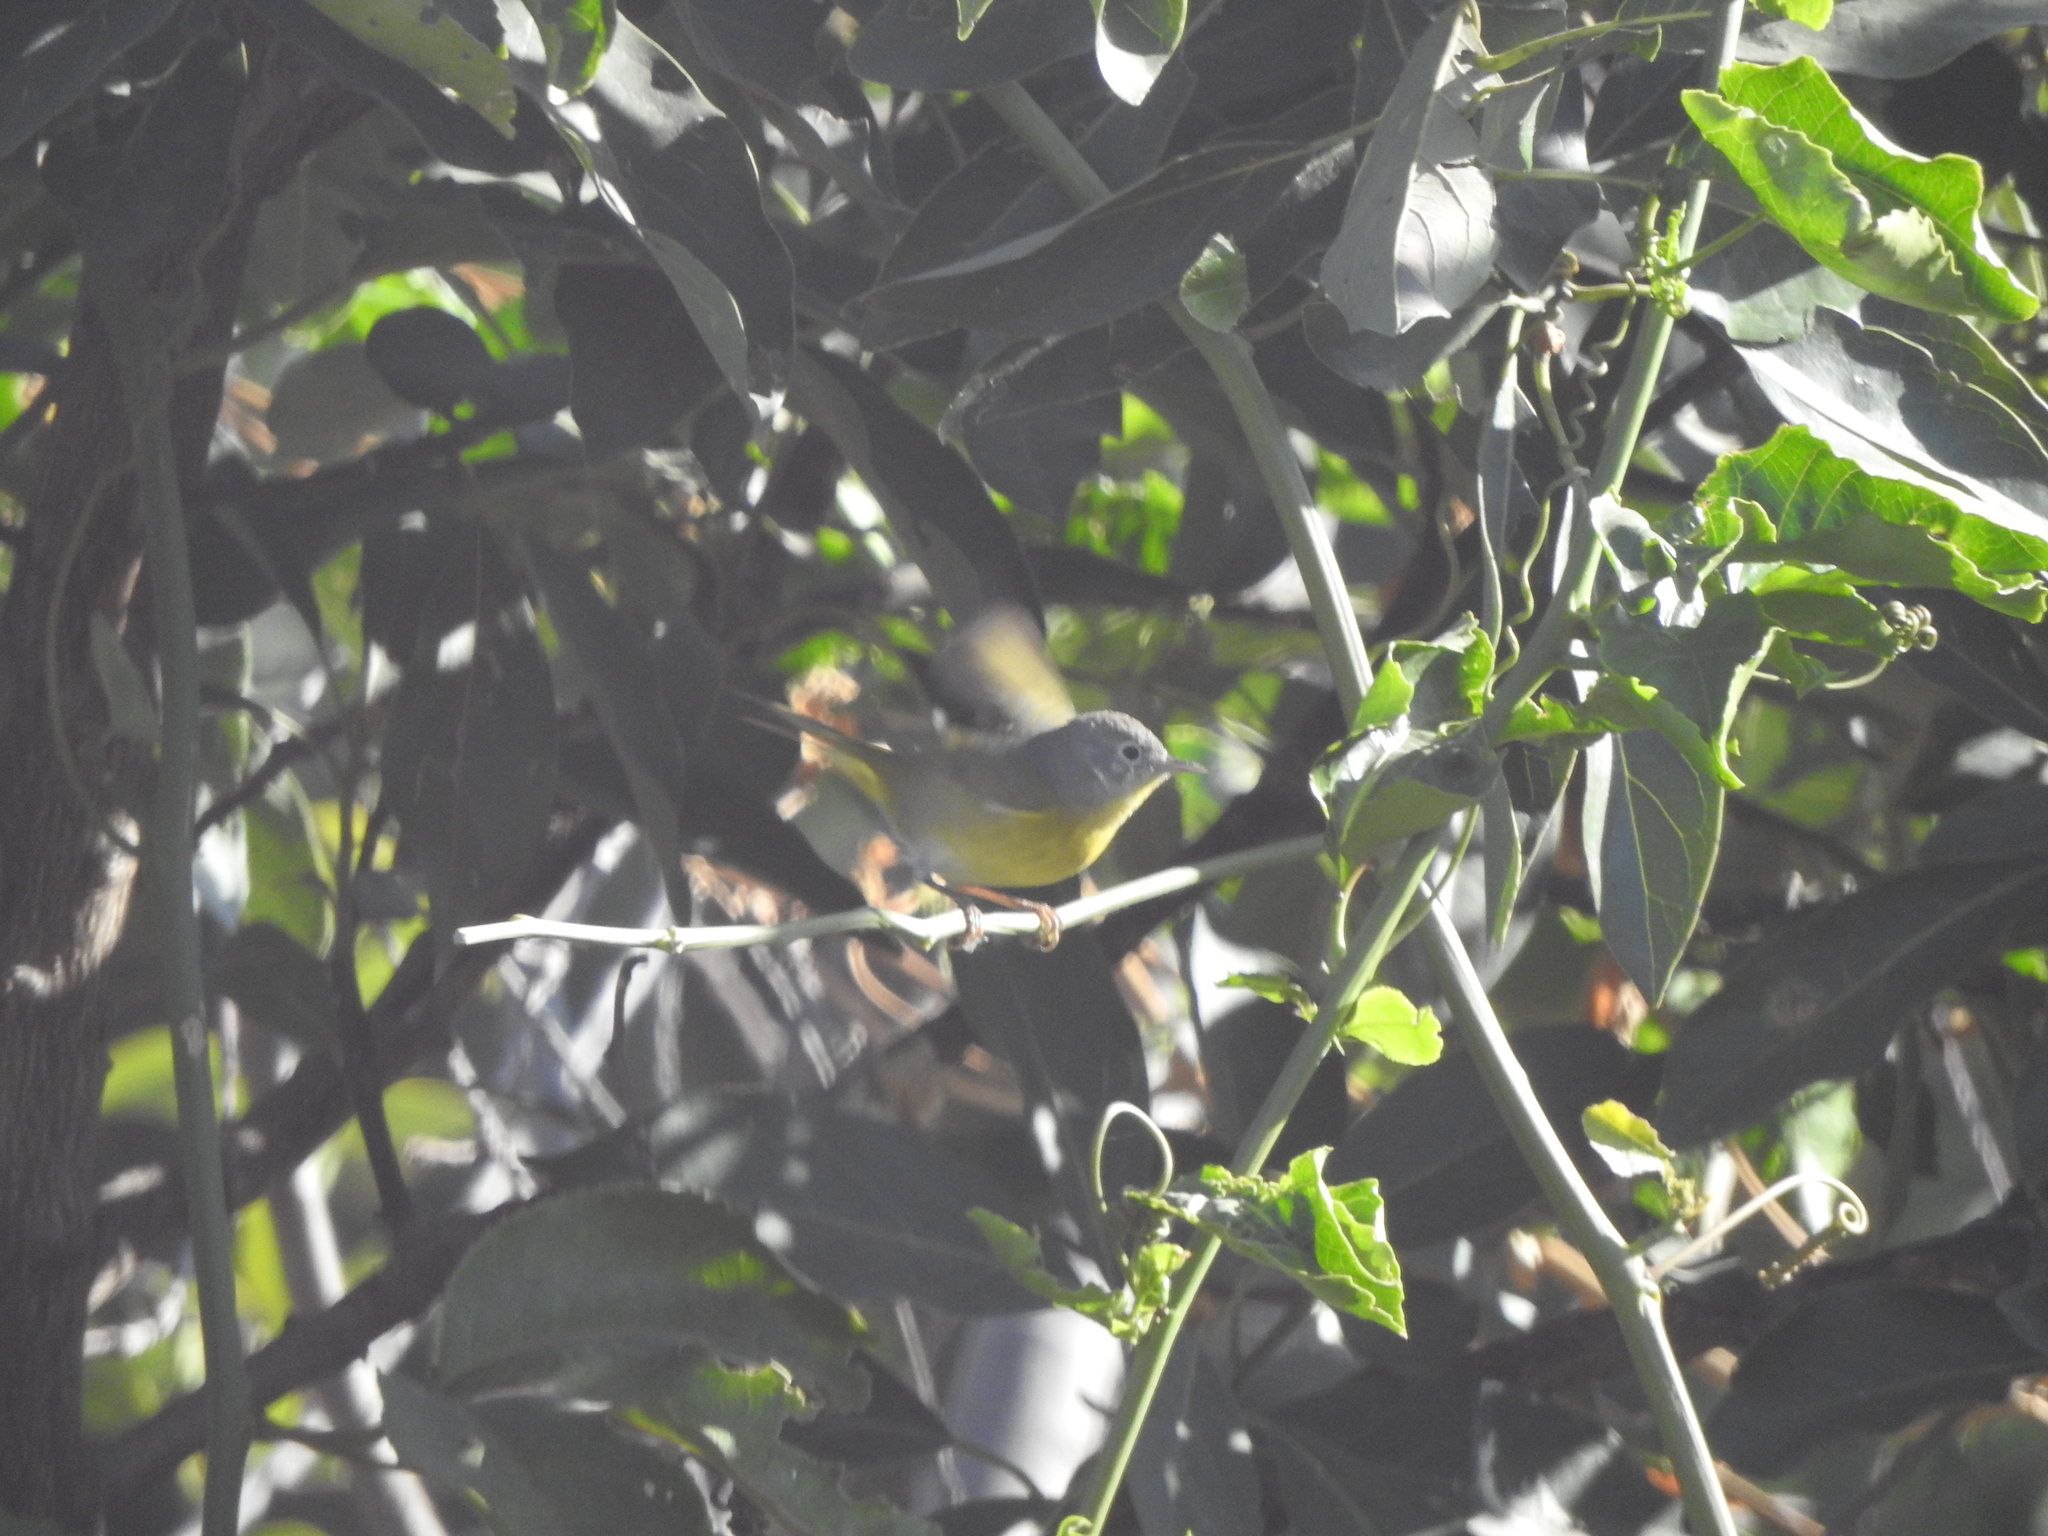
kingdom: Animalia
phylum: Chordata
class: Aves
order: Passeriformes
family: Parulidae
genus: Leiothlypis
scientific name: Leiothlypis ruficapilla
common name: Nashville warbler
